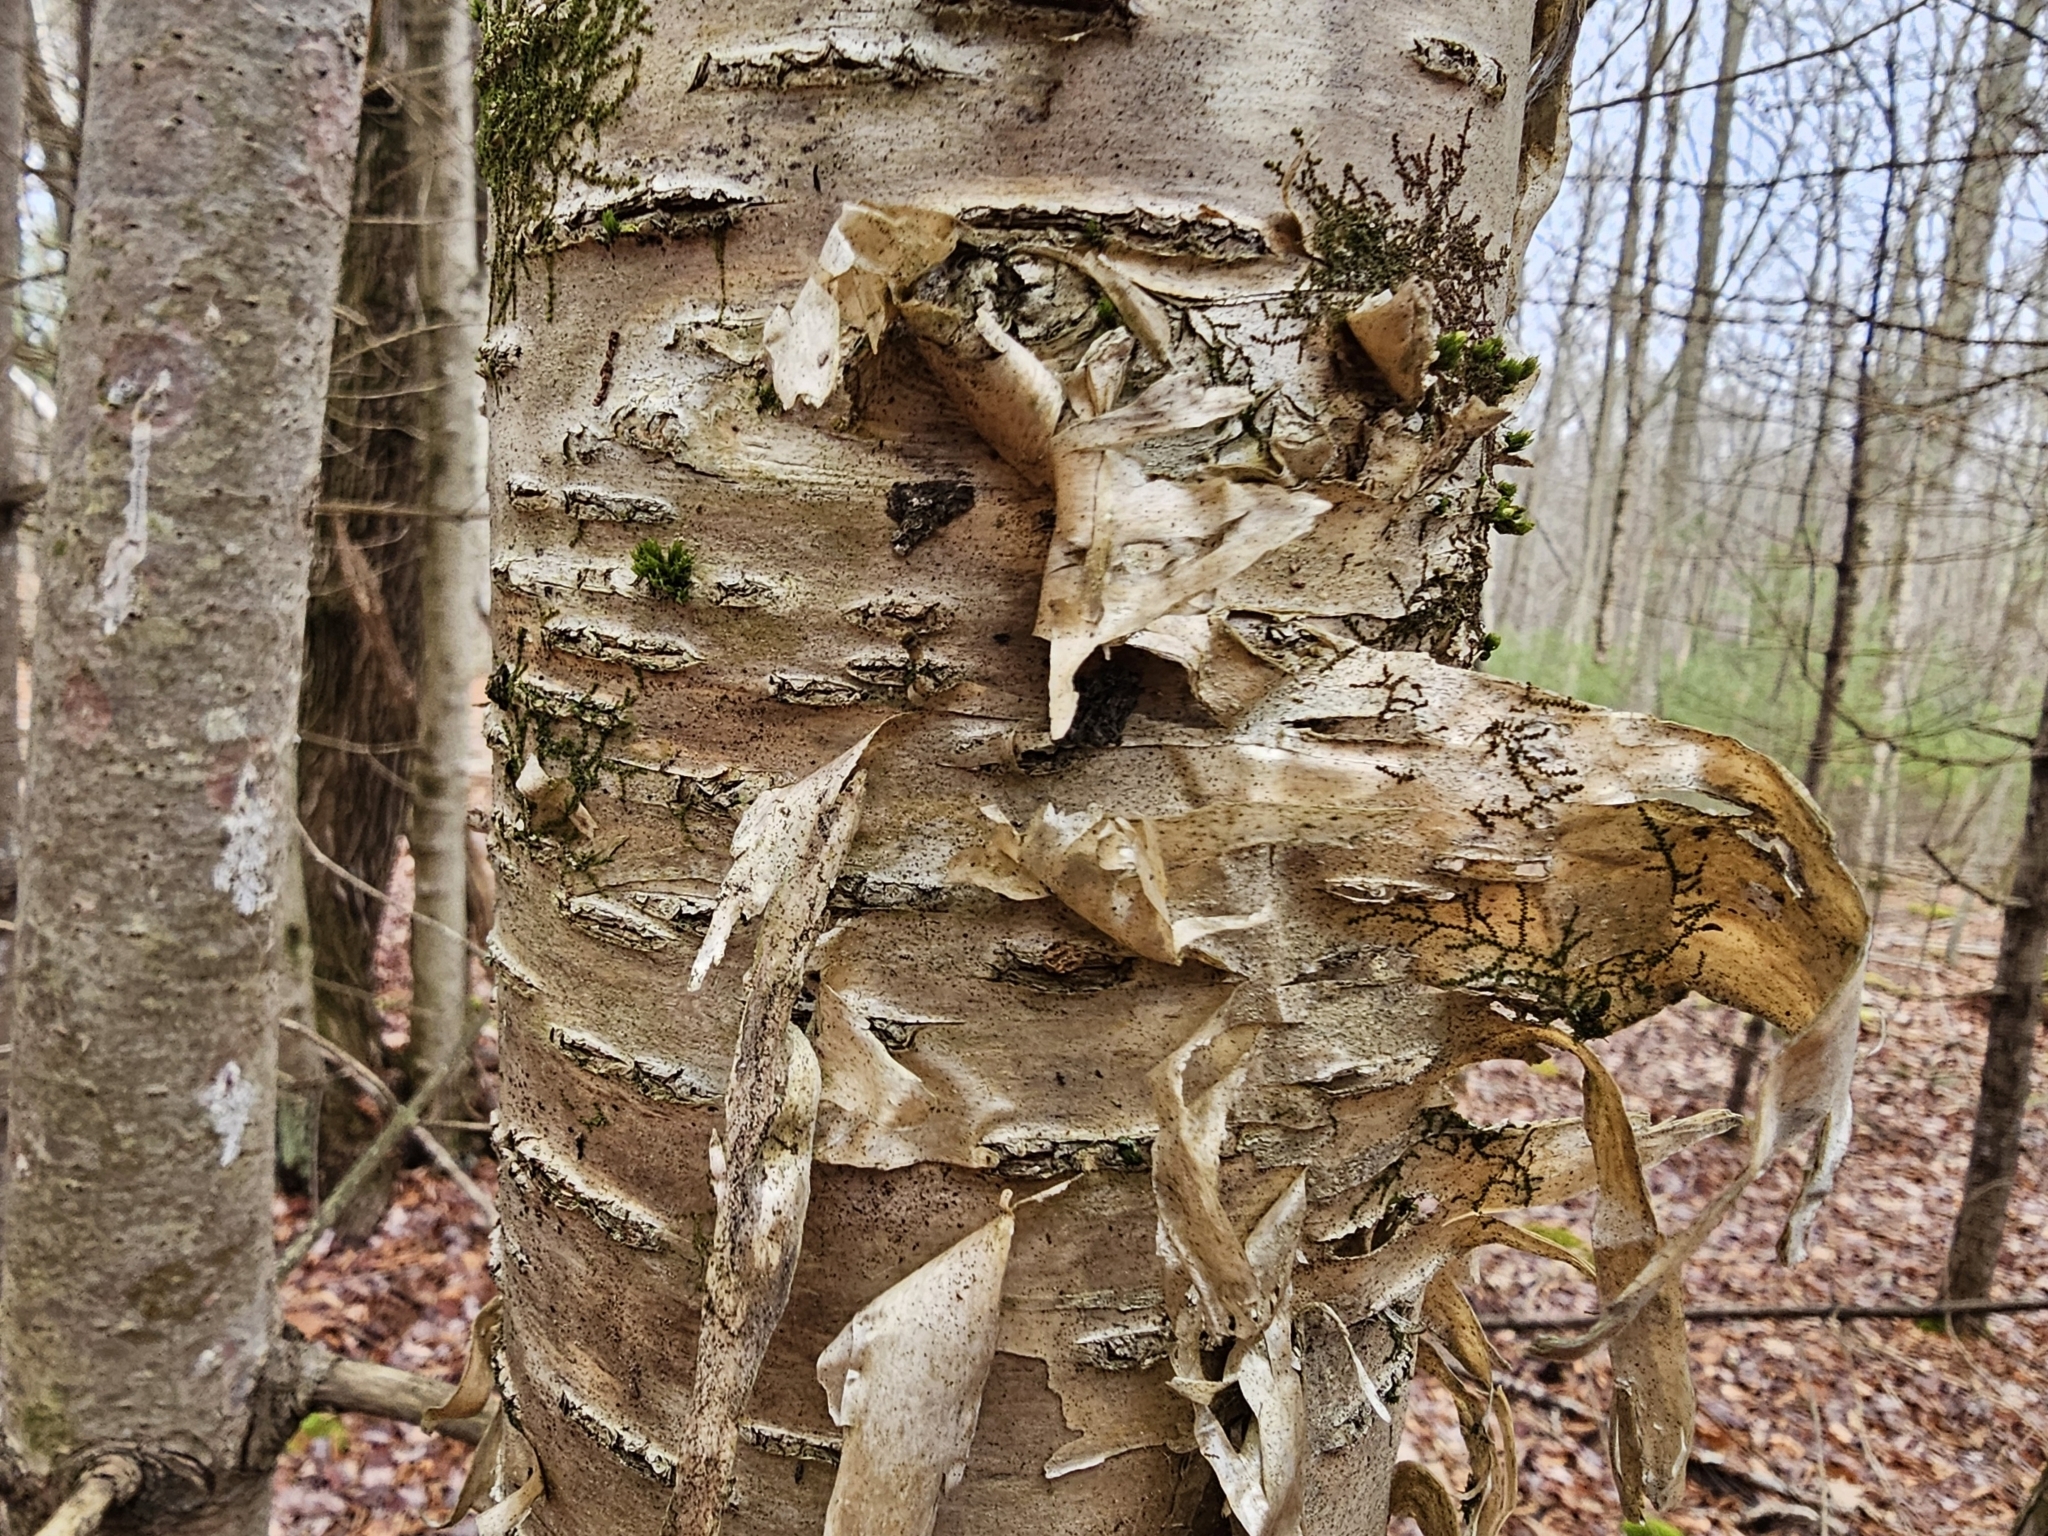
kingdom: Plantae
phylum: Tracheophyta
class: Magnoliopsida
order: Fagales
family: Betulaceae
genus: Betula
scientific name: Betula alleghaniensis
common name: Yellow birch
